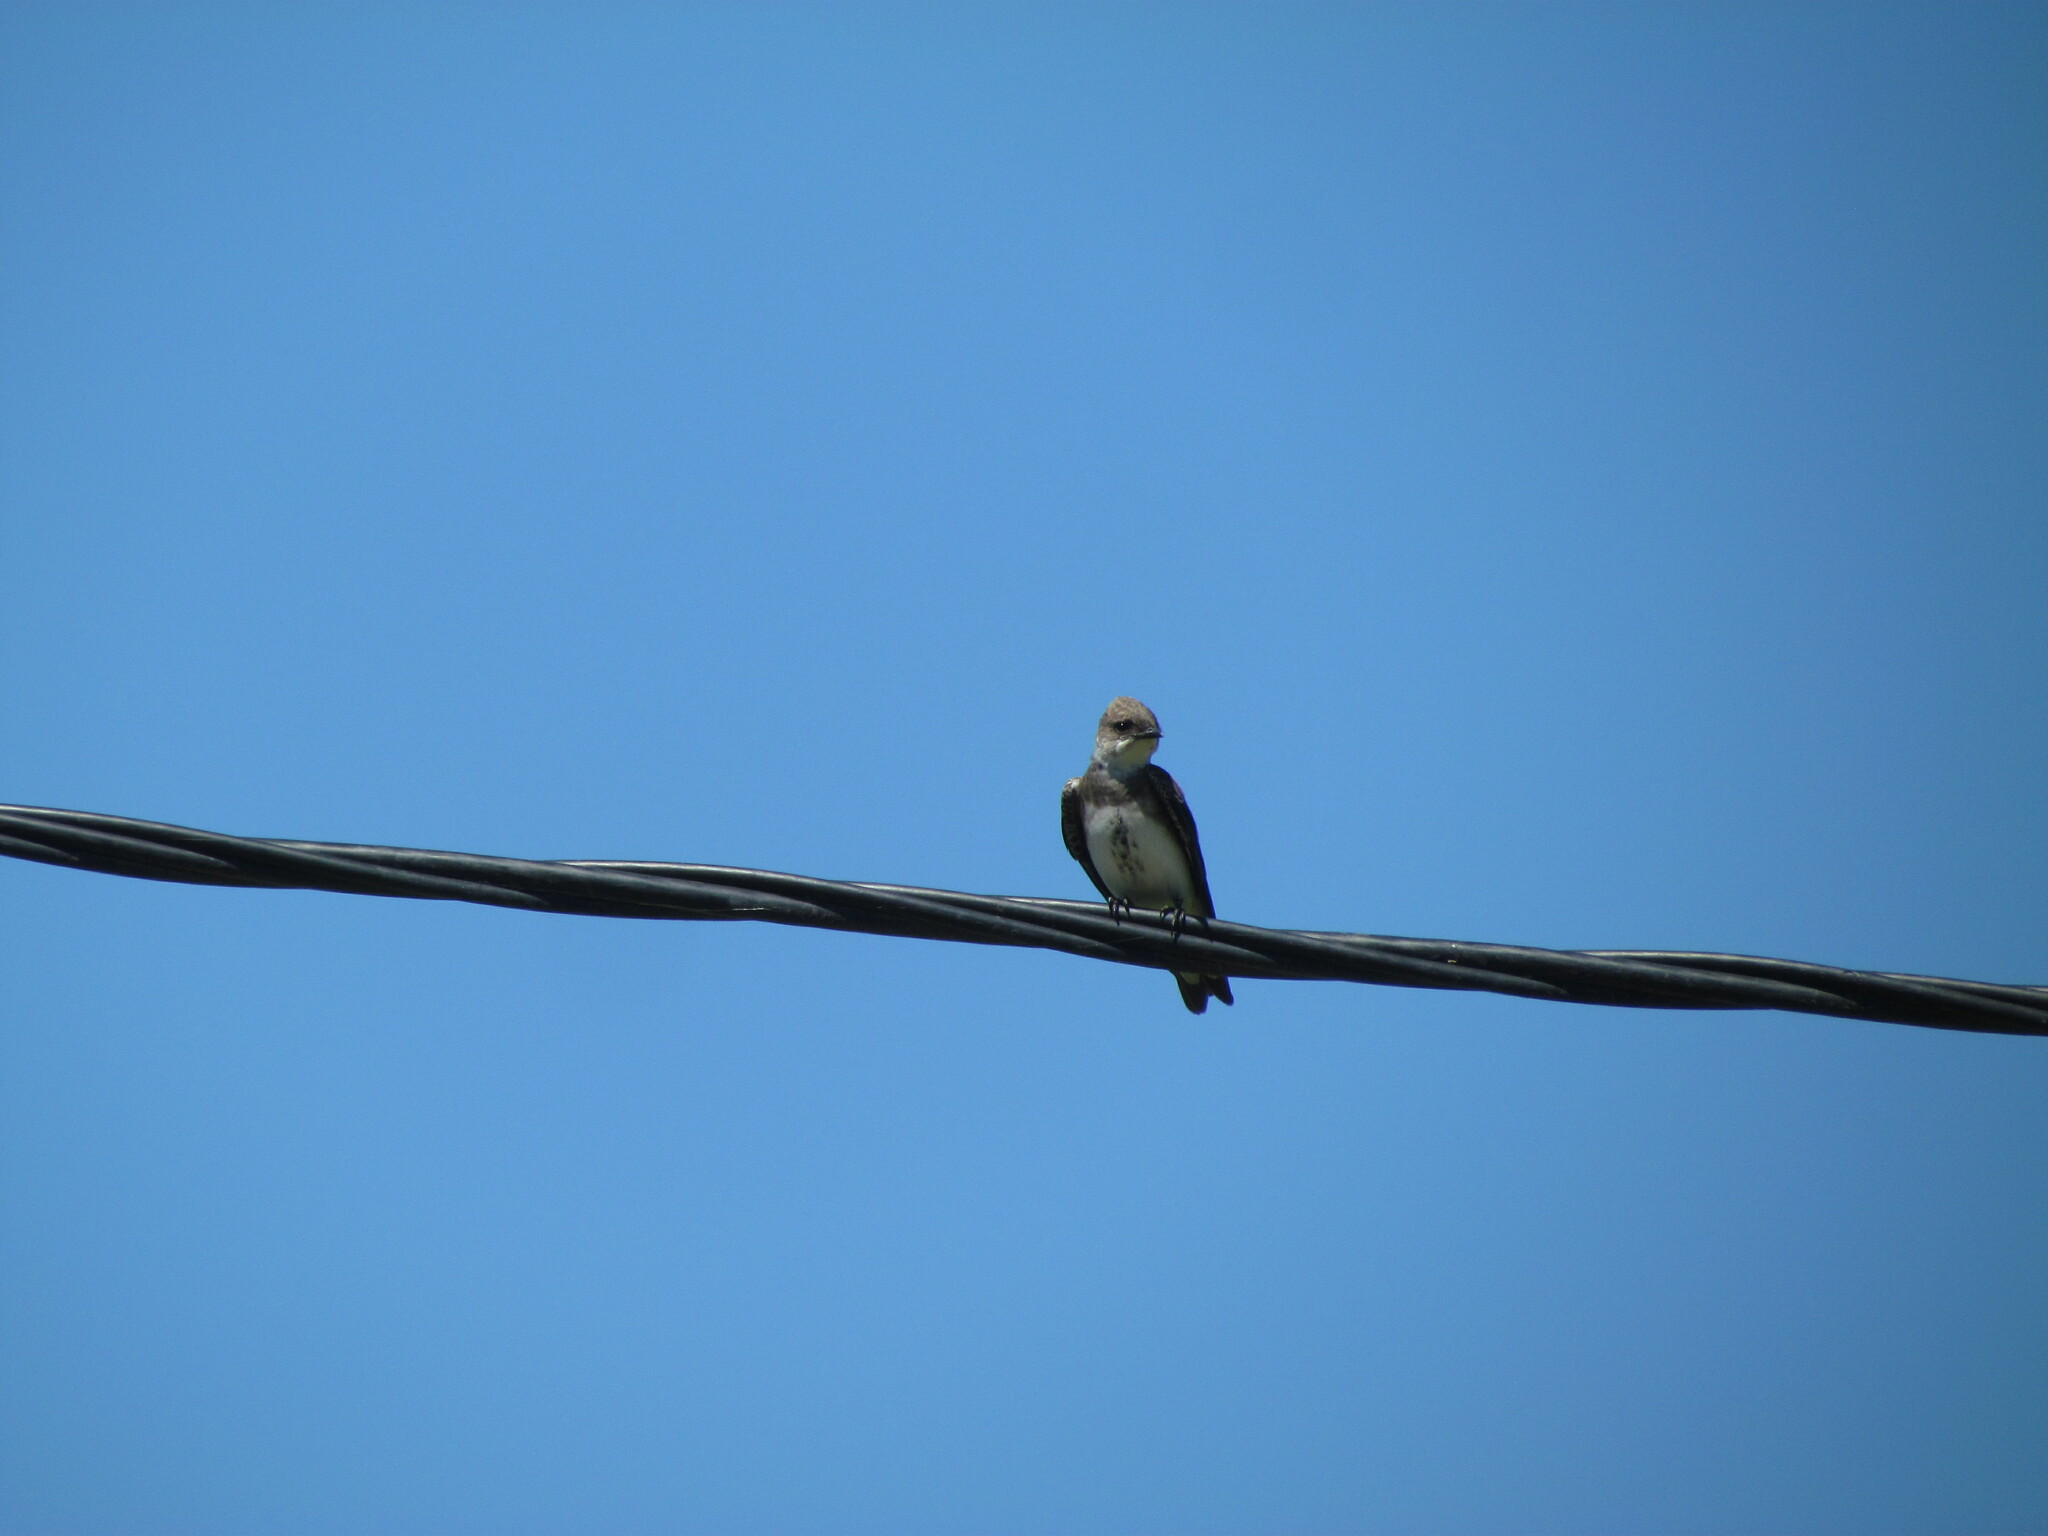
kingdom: Animalia
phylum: Chordata
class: Aves
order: Passeriformes
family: Hirundinidae
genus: Progne
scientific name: Progne tapera
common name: Brown-chested martin
